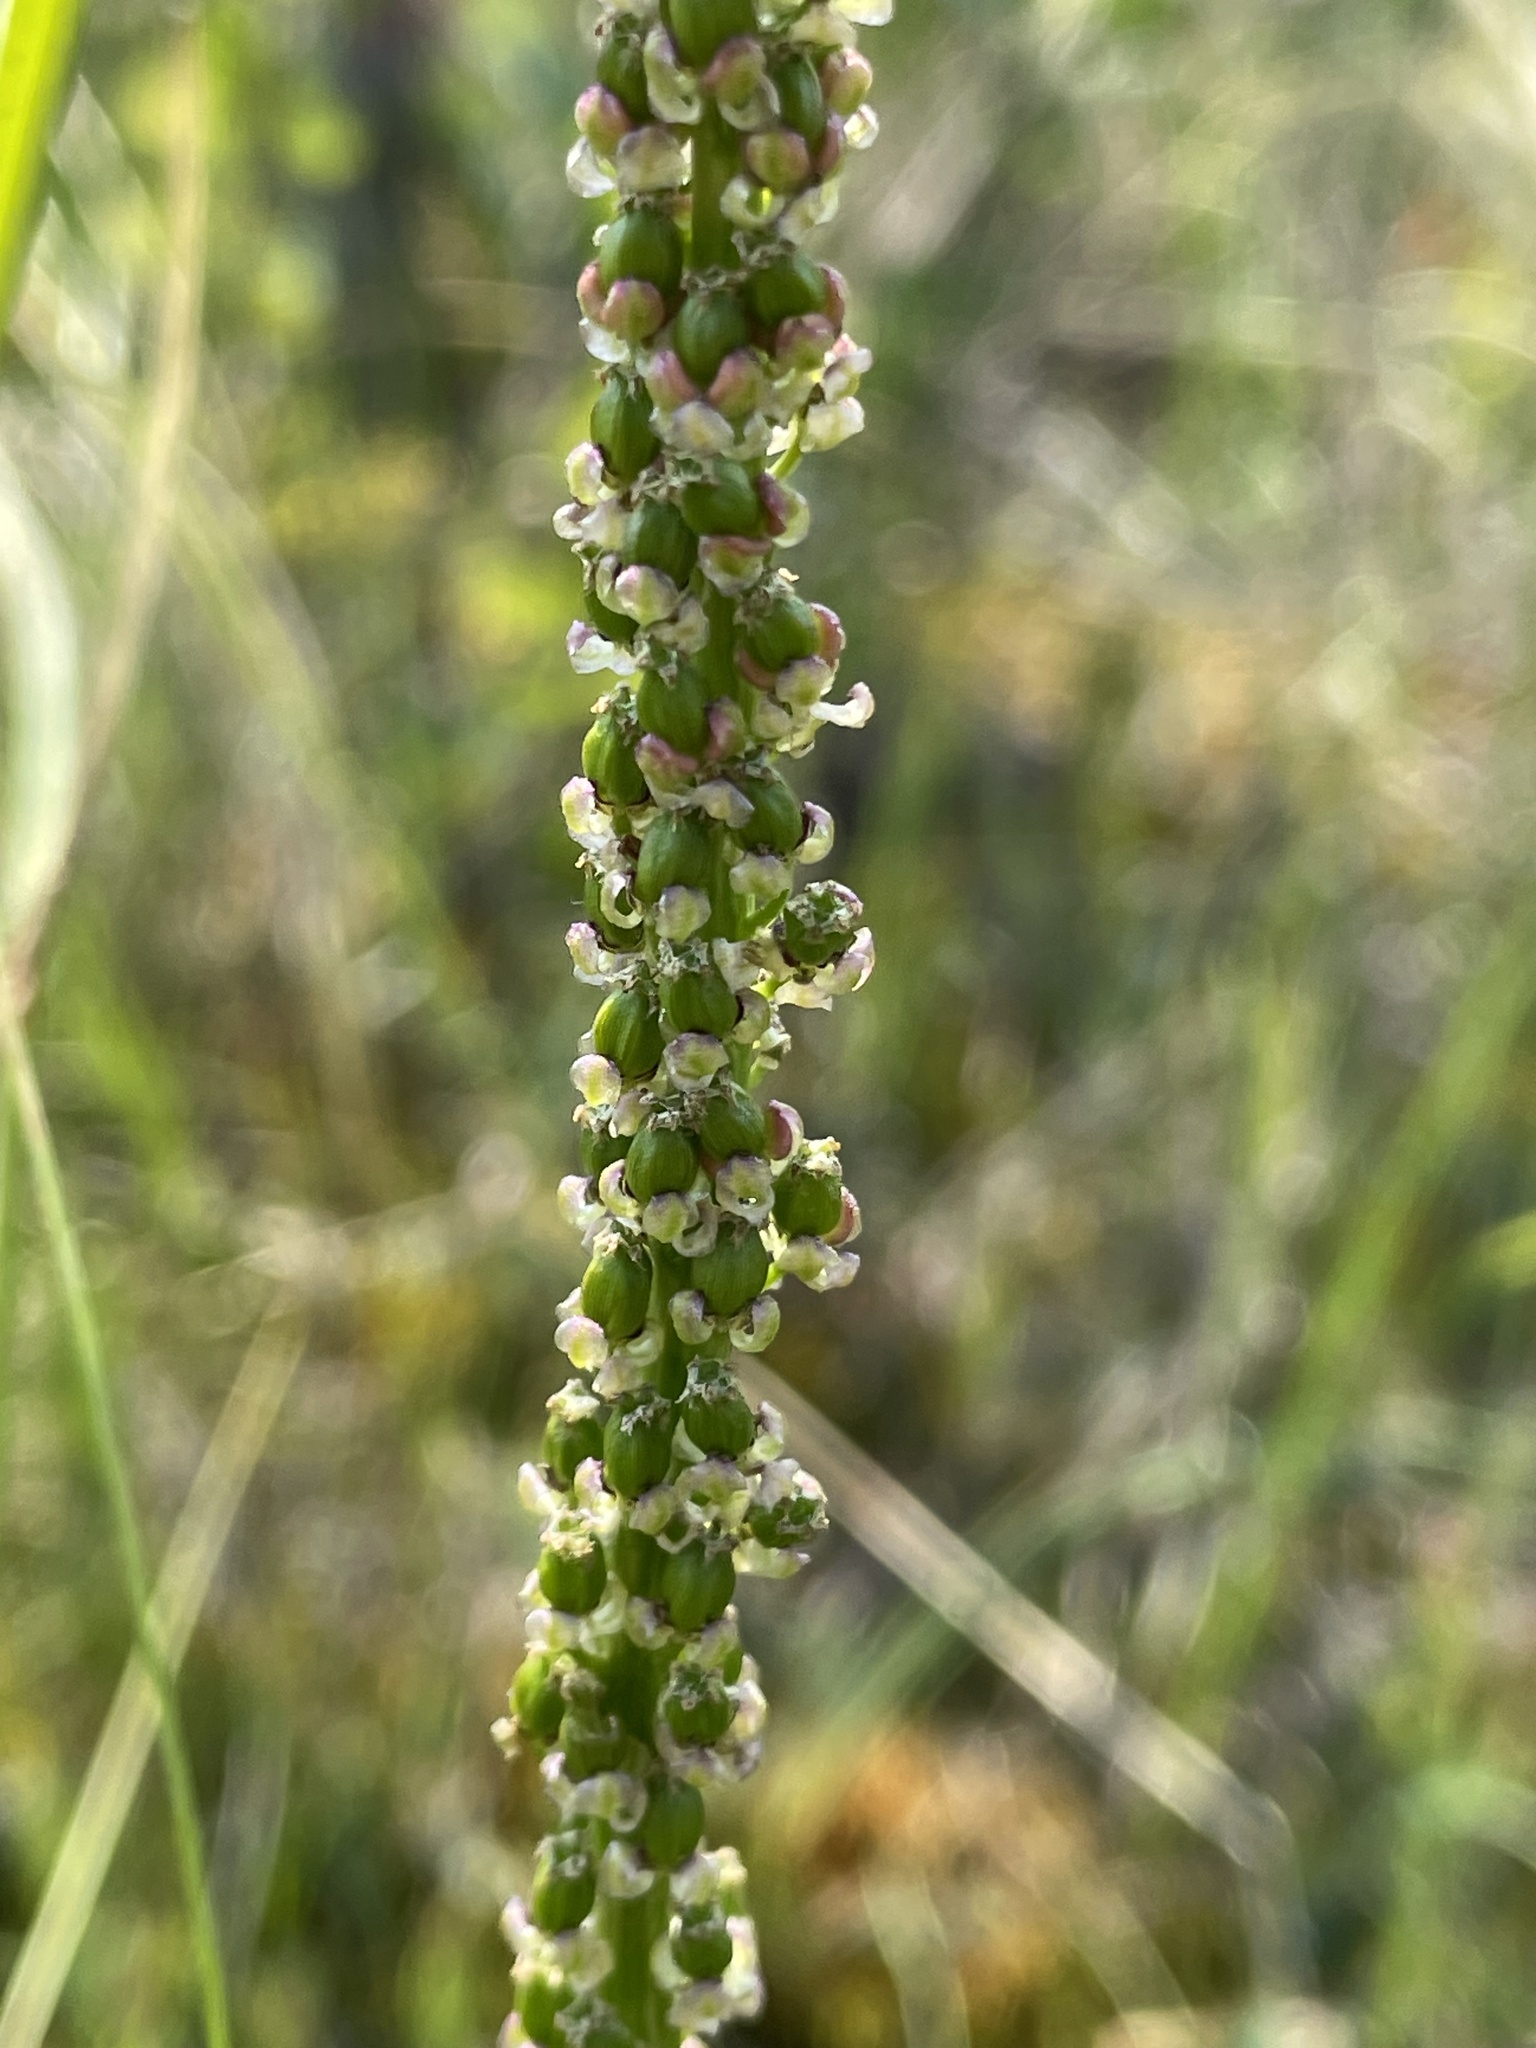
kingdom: Plantae
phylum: Tracheophyta
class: Liliopsida
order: Alismatales
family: Juncaginaceae
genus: Triglochin
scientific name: Triglochin maritima
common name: Sea arrowgrass
